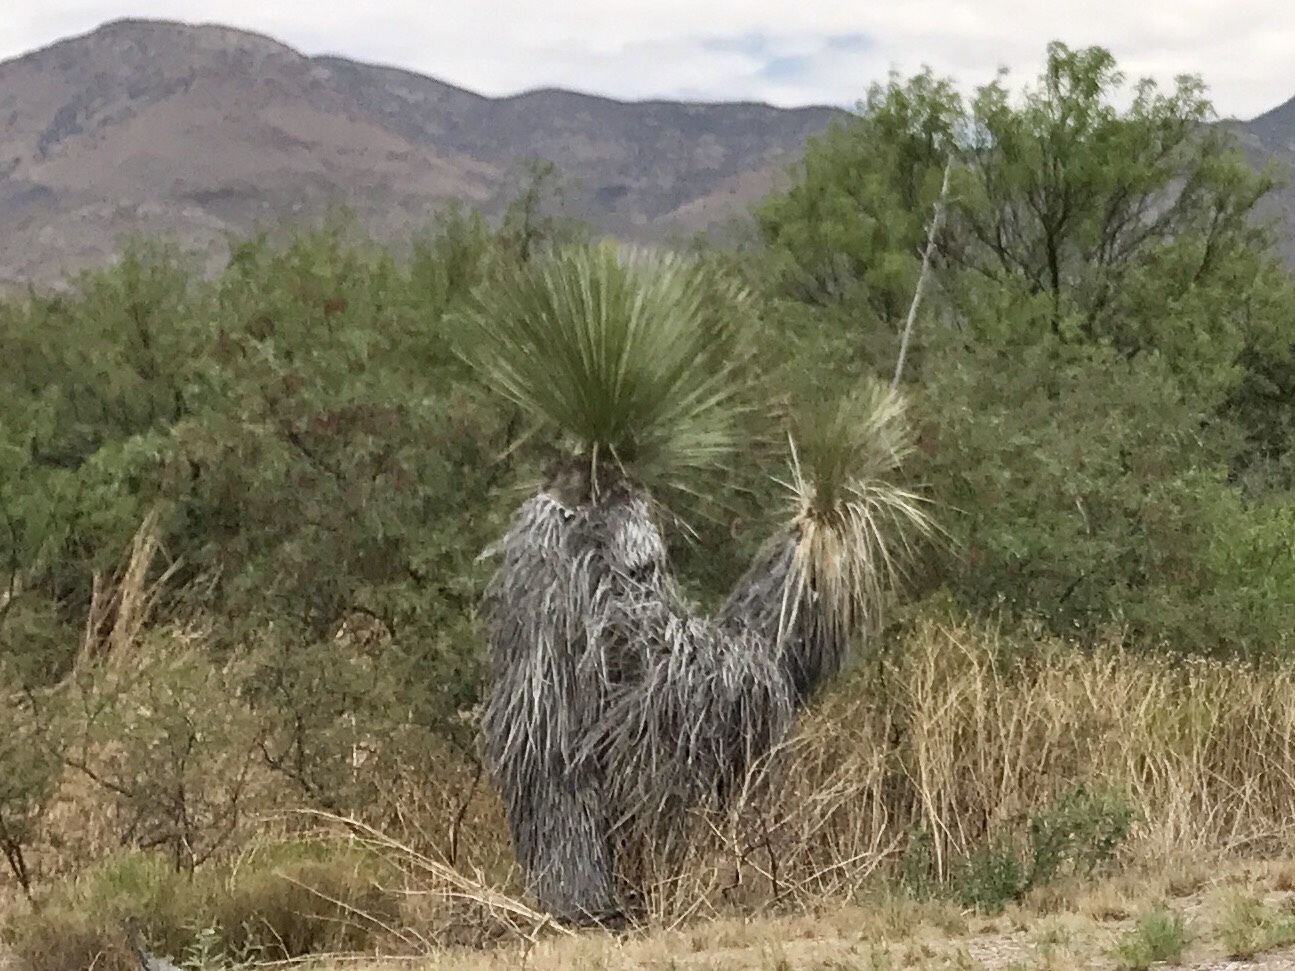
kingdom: Plantae
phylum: Tracheophyta
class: Liliopsida
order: Asparagales
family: Asparagaceae
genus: Yucca
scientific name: Yucca elata
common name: Palmella
